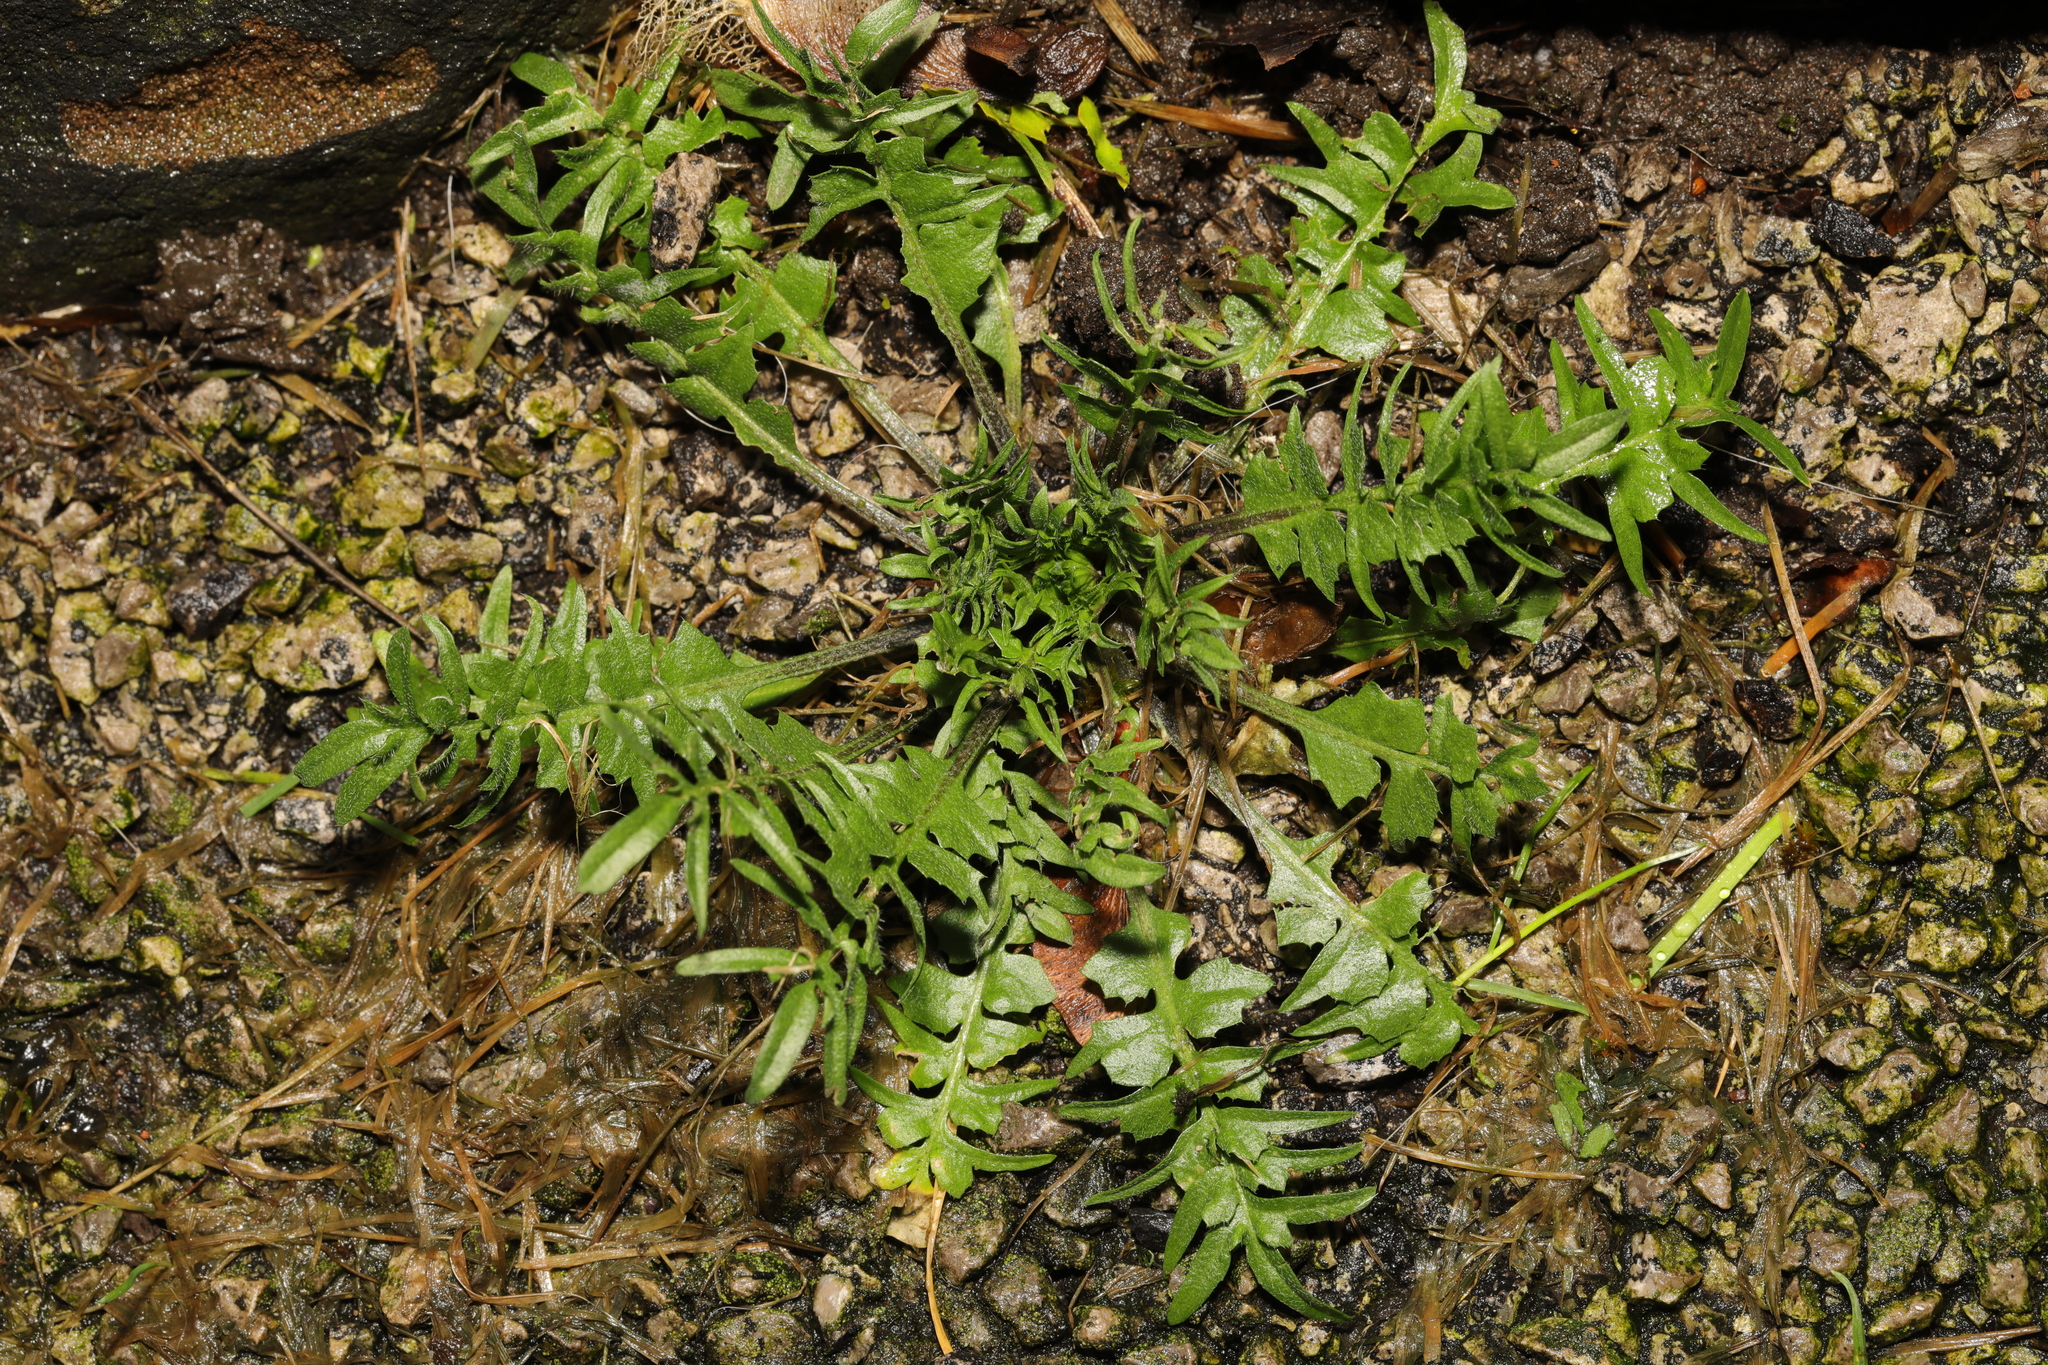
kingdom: Plantae
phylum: Tracheophyta
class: Magnoliopsida
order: Brassicales
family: Brassicaceae
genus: Capsella
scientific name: Capsella bursa-pastoris
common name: Shepherd's purse
